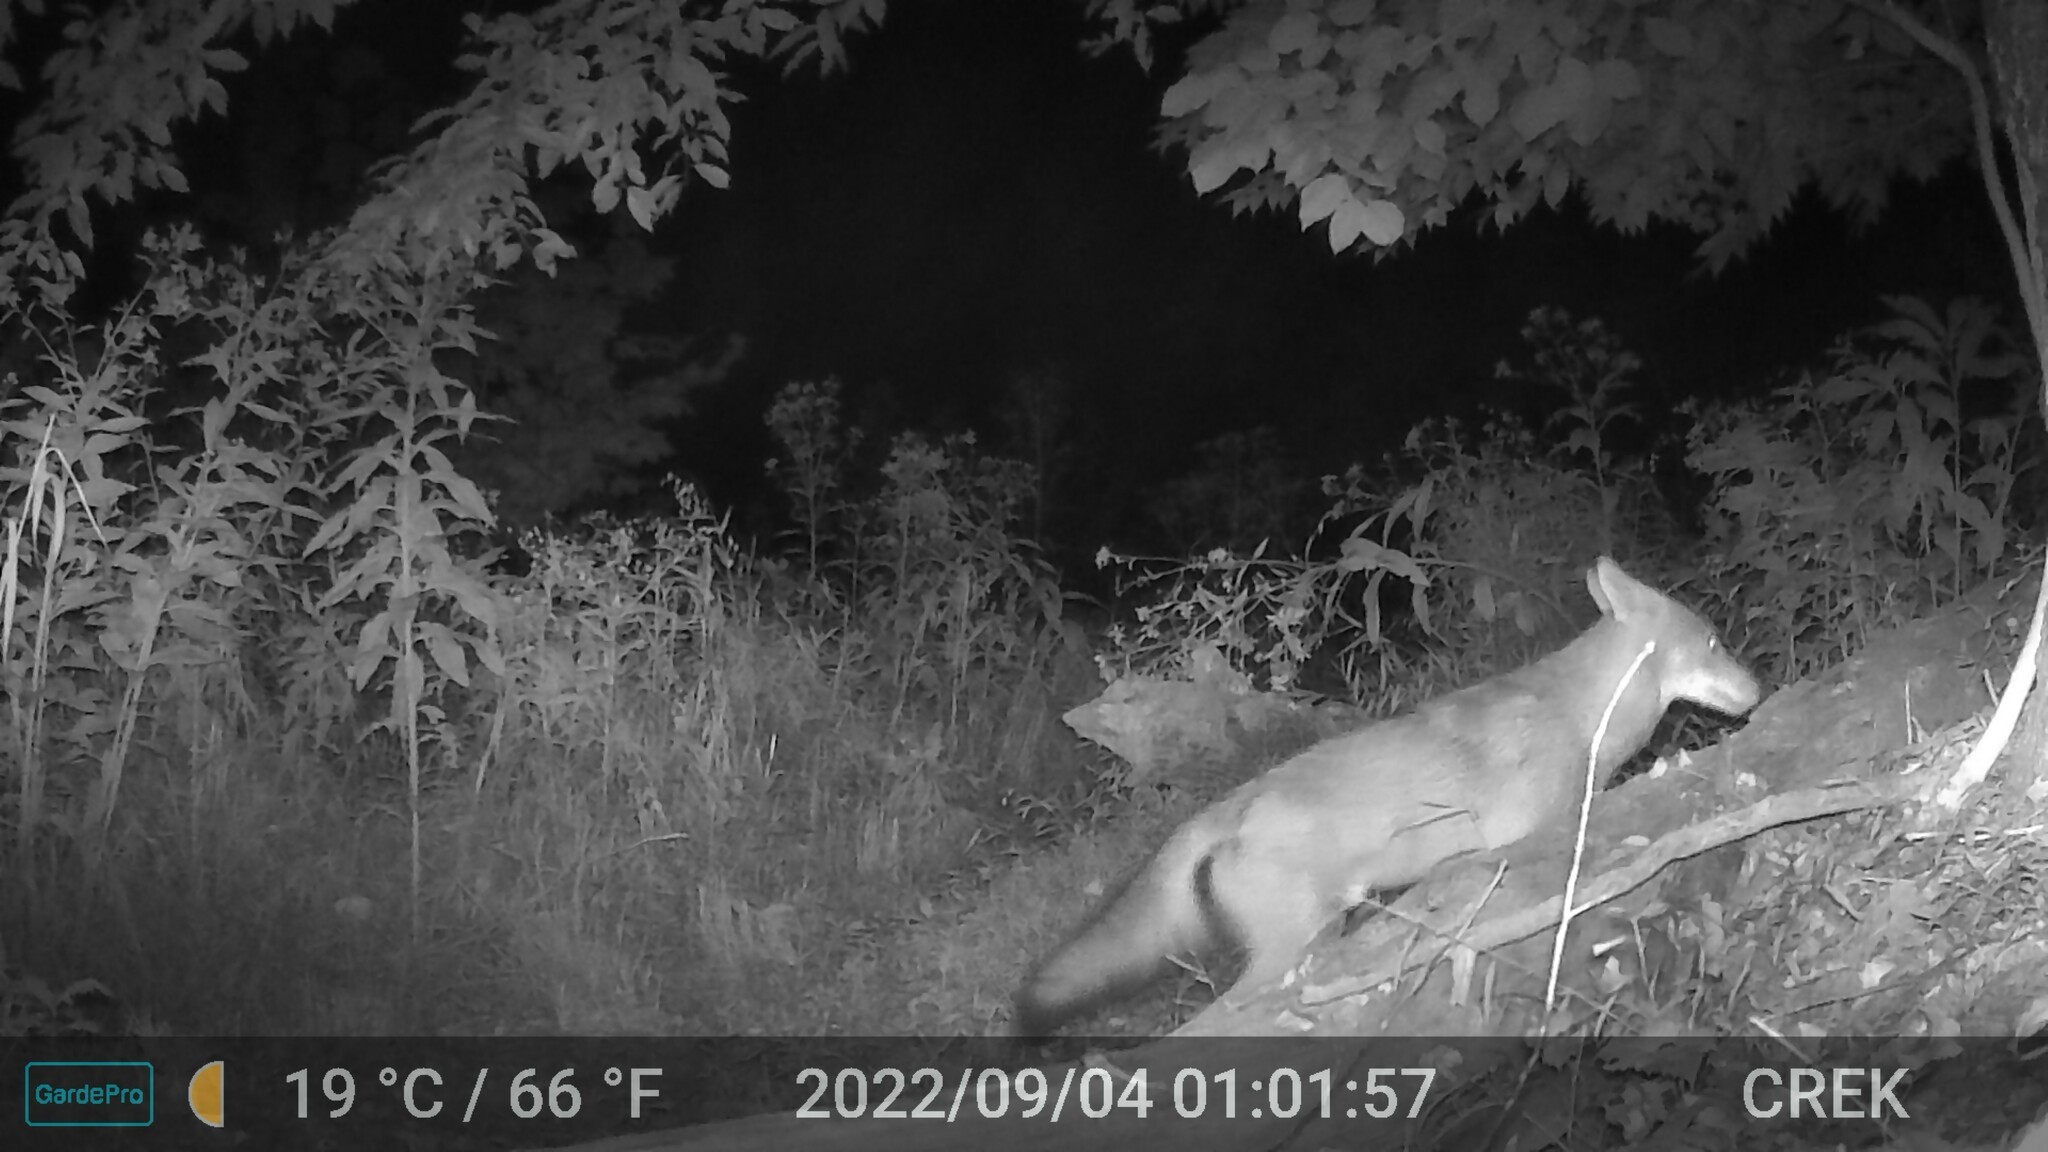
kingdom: Animalia
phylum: Chordata
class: Mammalia
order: Carnivora
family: Canidae
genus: Canis
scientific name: Canis latrans
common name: Coyote
